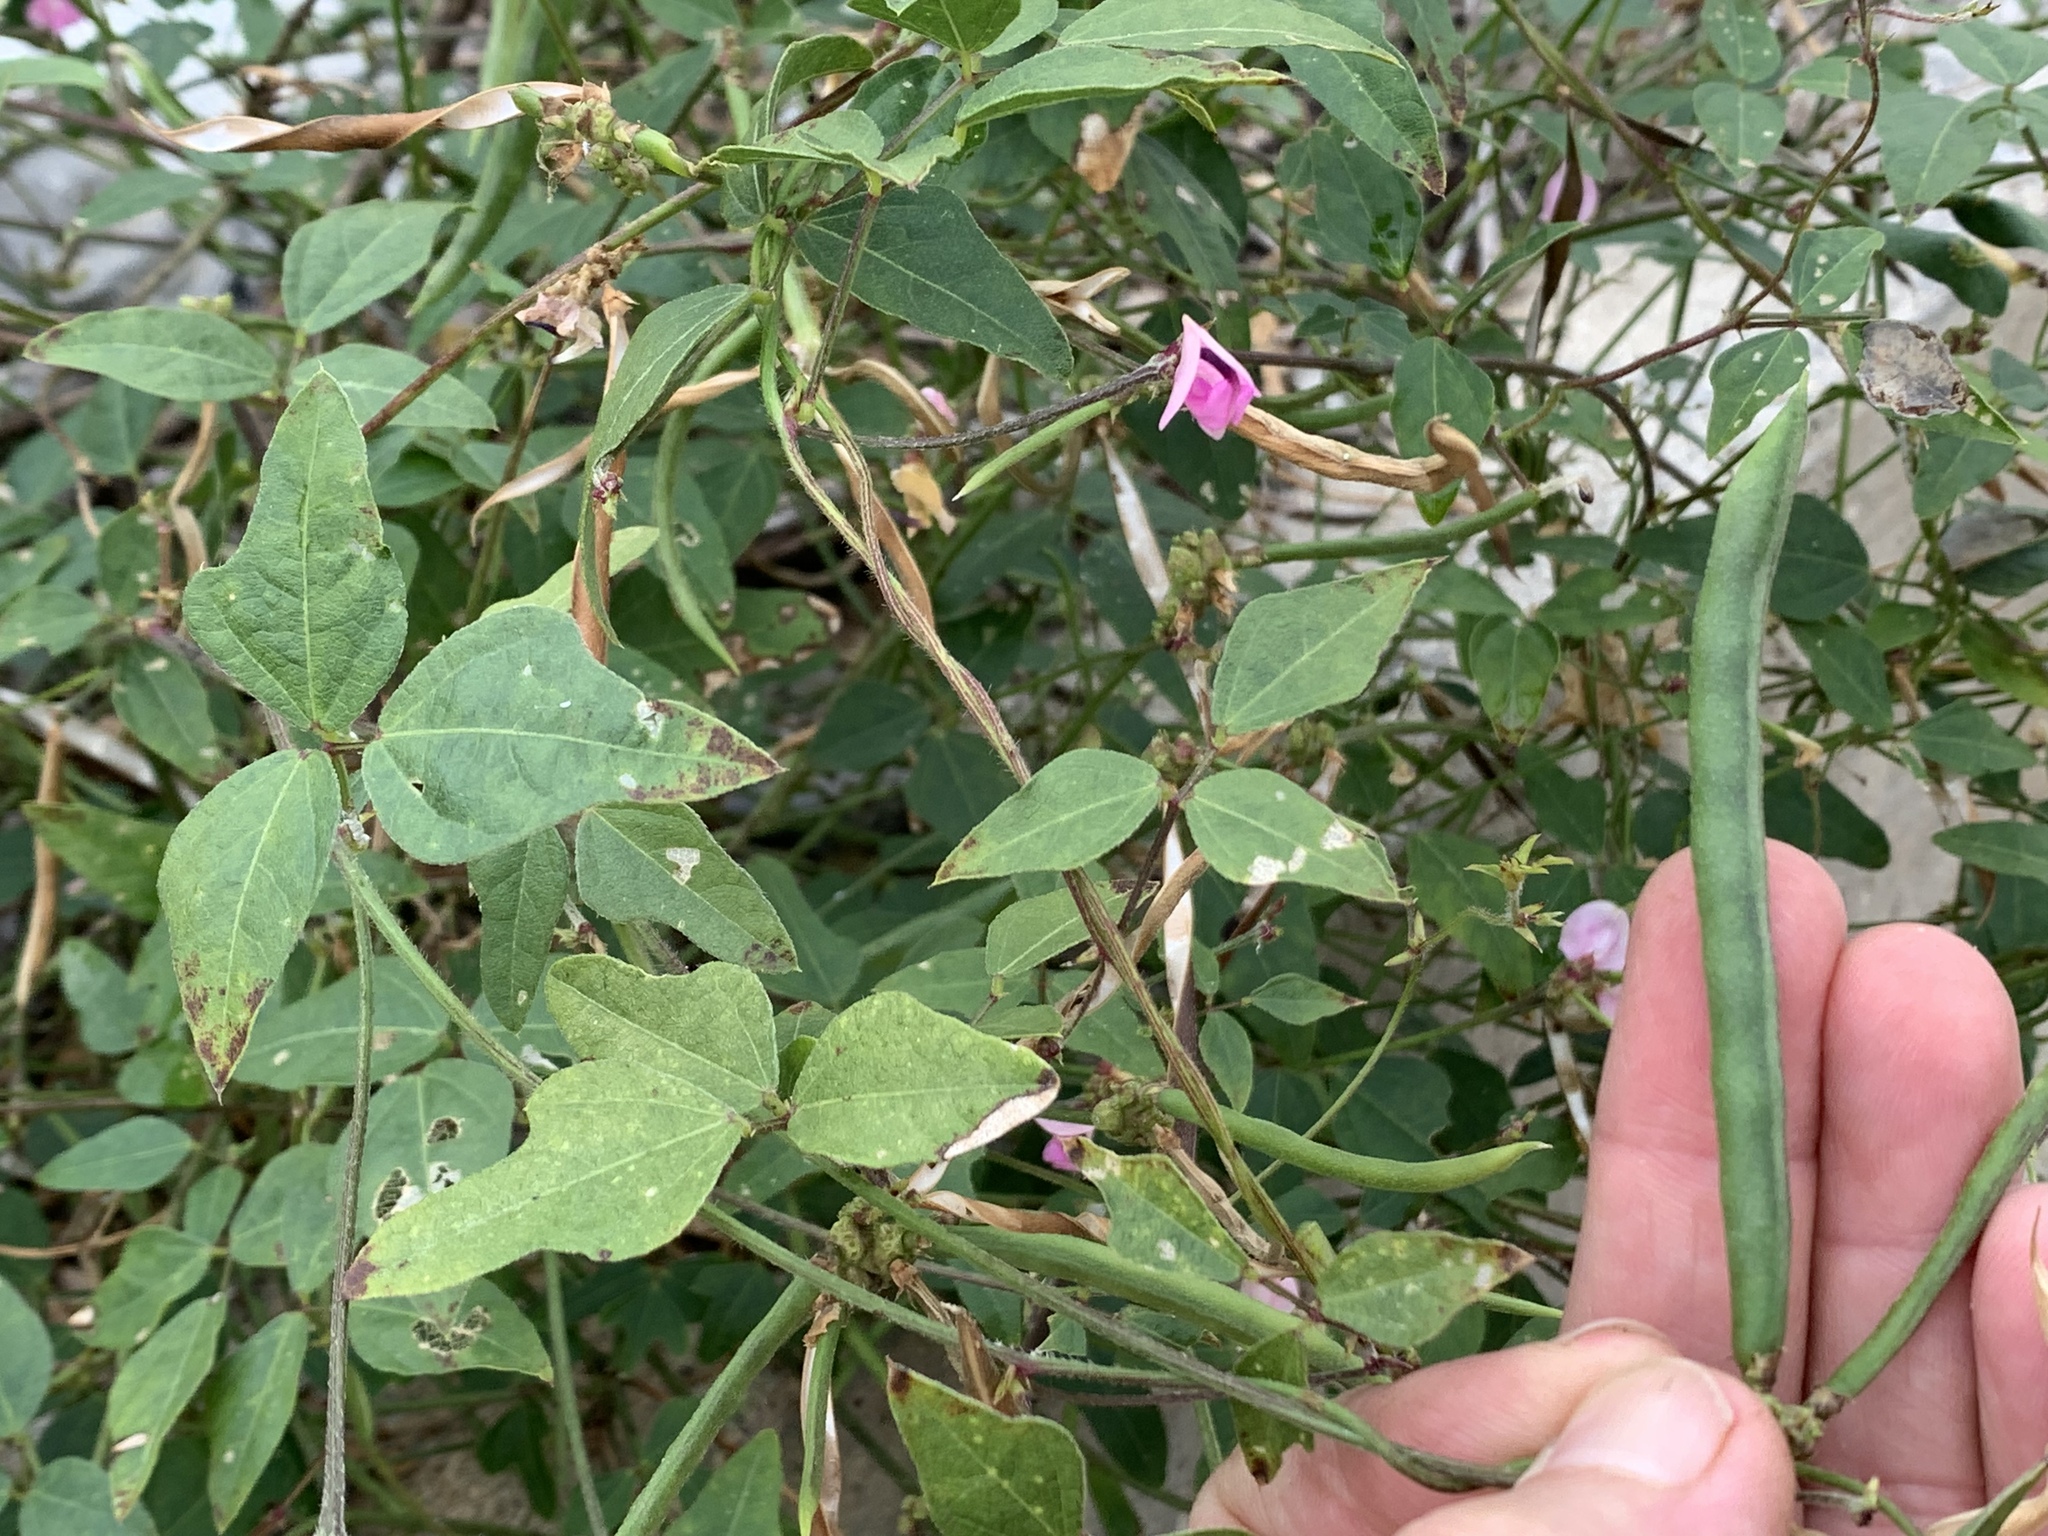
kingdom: Plantae
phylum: Tracheophyta
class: Magnoliopsida
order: Fabales
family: Fabaceae
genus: Strophostyles
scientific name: Strophostyles helvola
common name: Trailing wild bean
